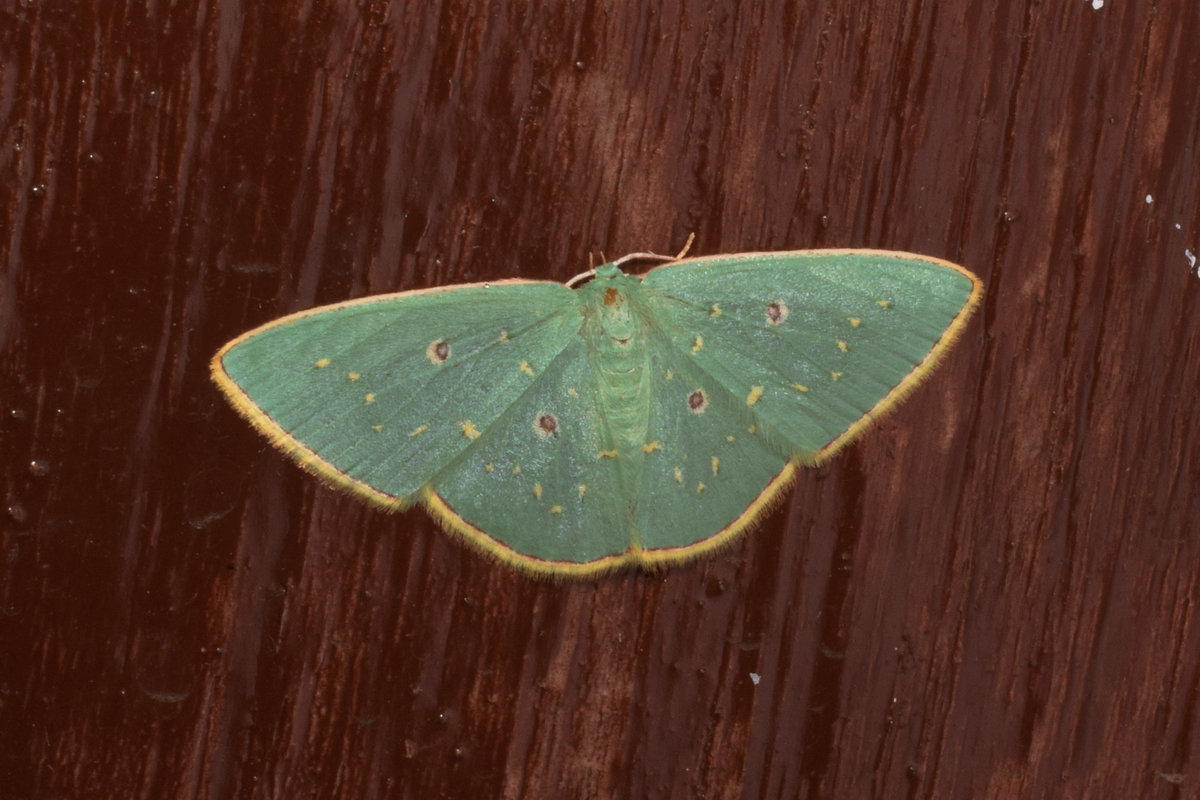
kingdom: Animalia
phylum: Arthropoda
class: Insecta
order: Lepidoptera
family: Geometridae
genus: Comostola
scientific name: Comostola leucosticta
